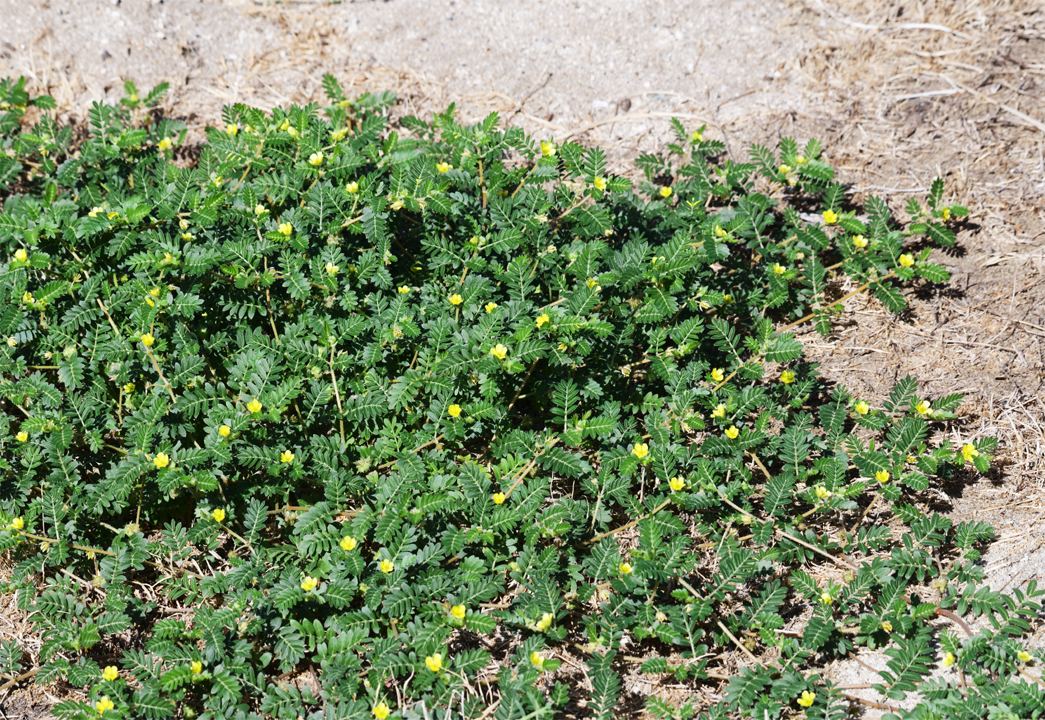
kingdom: Plantae
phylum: Tracheophyta
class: Magnoliopsida
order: Zygophyllales
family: Zygophyllaceae
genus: Tribulus
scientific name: Tribulus terrestris
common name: Puncturevine
